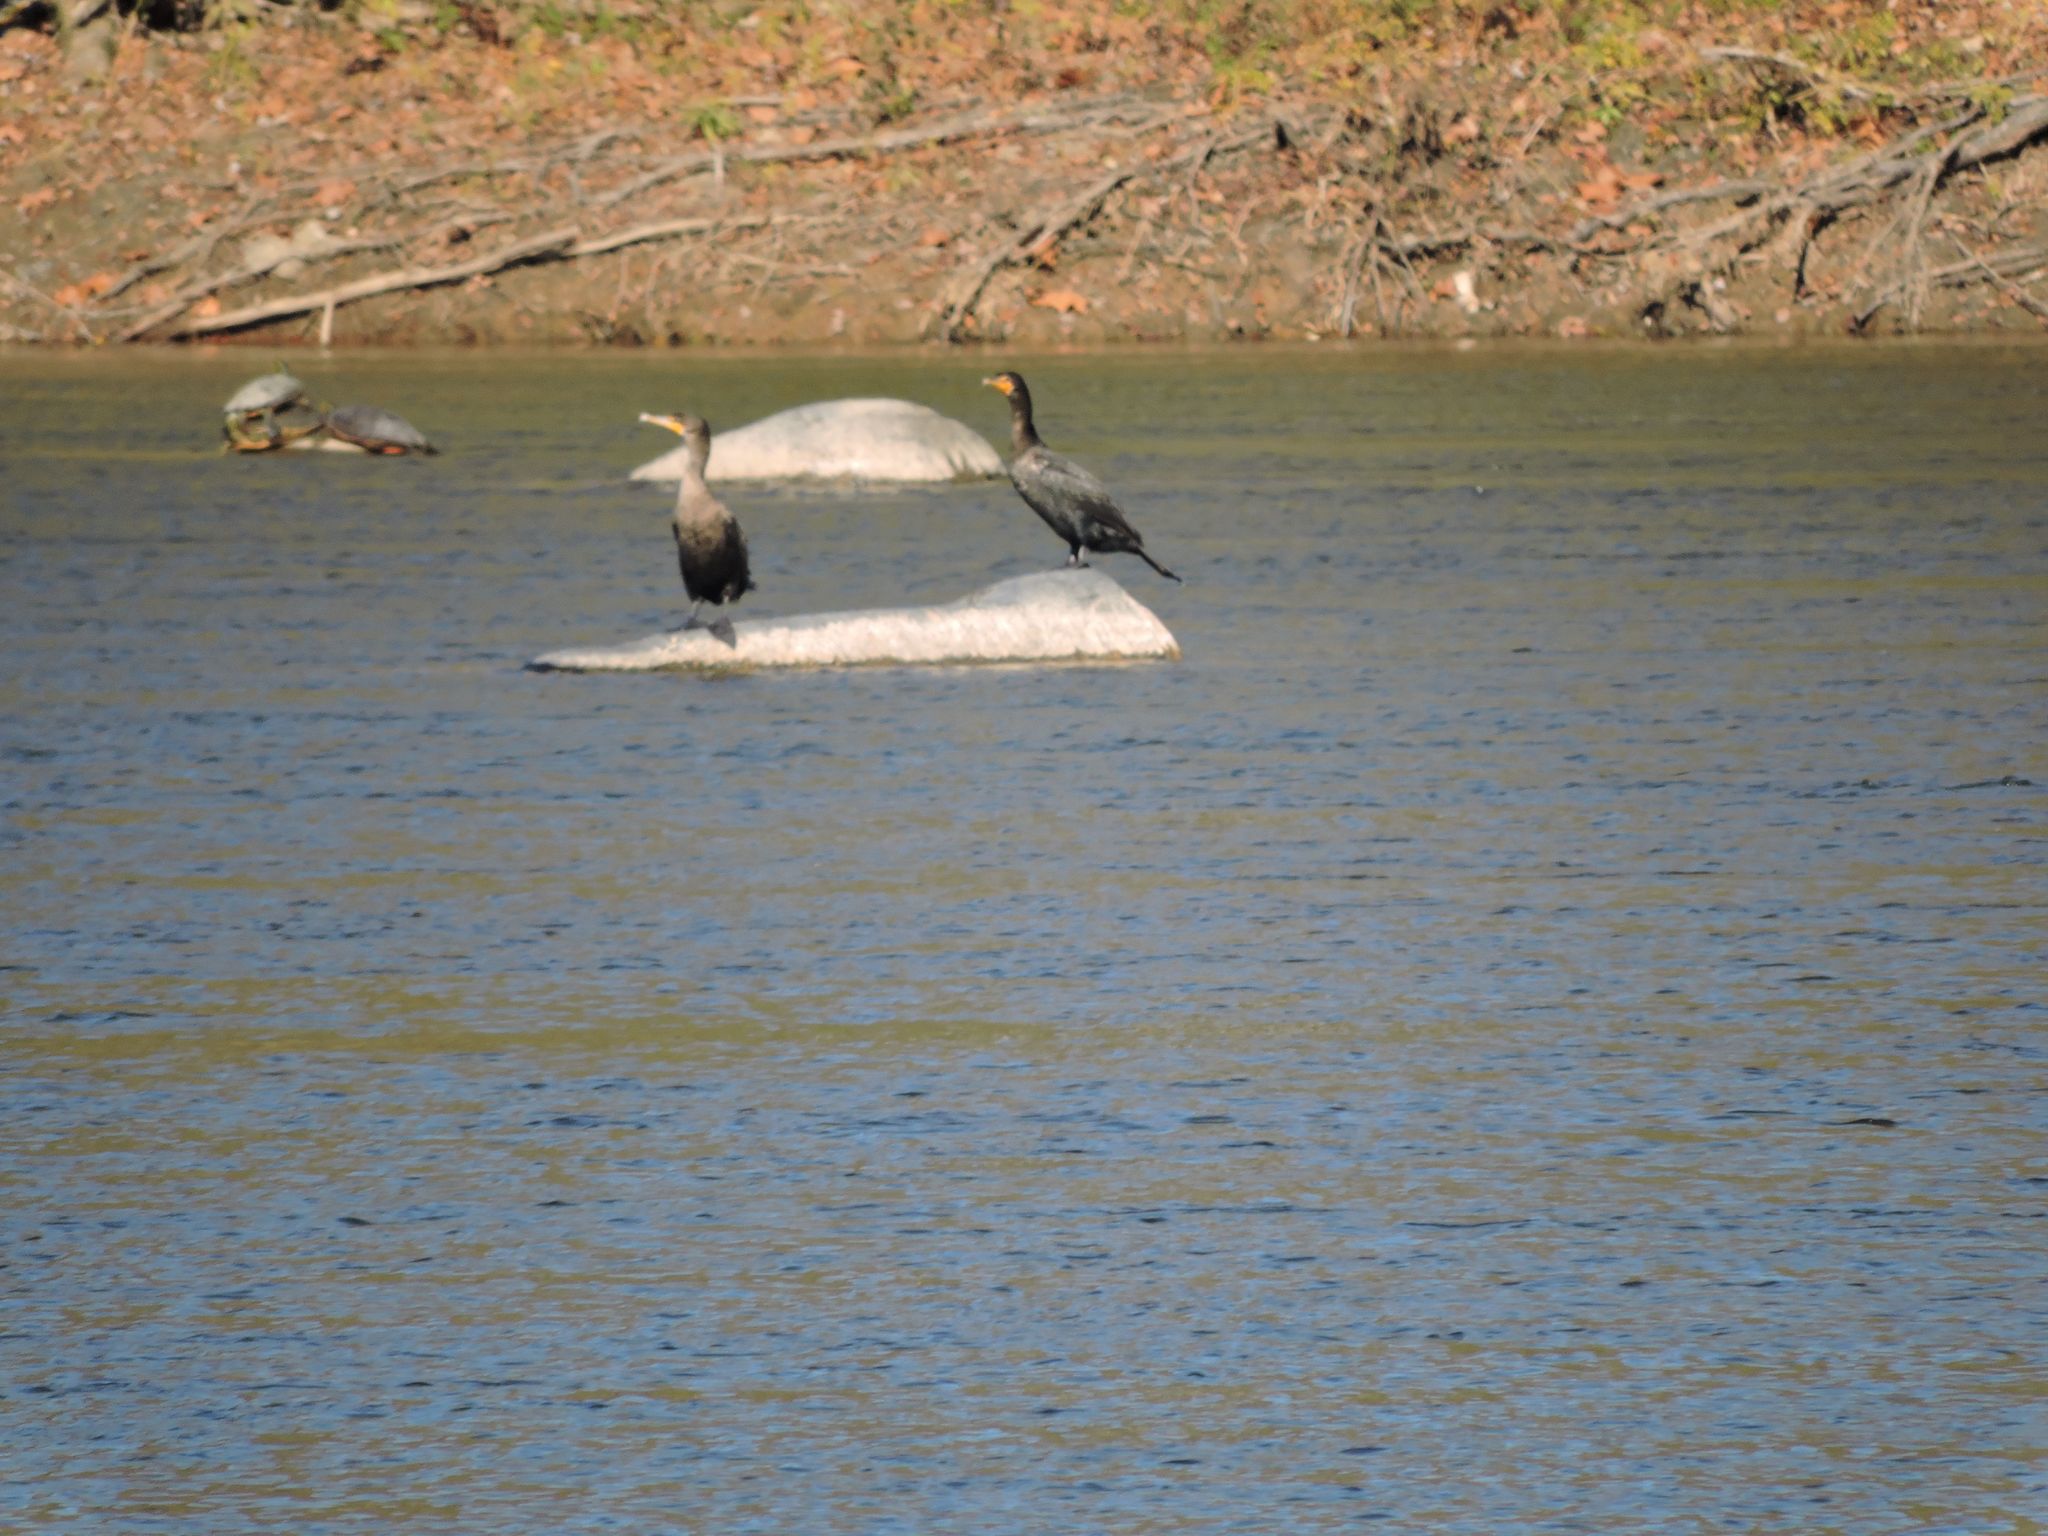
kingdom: Animalia
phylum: Chordata
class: Aves
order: Suliformes
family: Phalacrocoracidae
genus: Phalacrocorax
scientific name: Phalacrocorax auritus
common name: Double-crested cormorant
